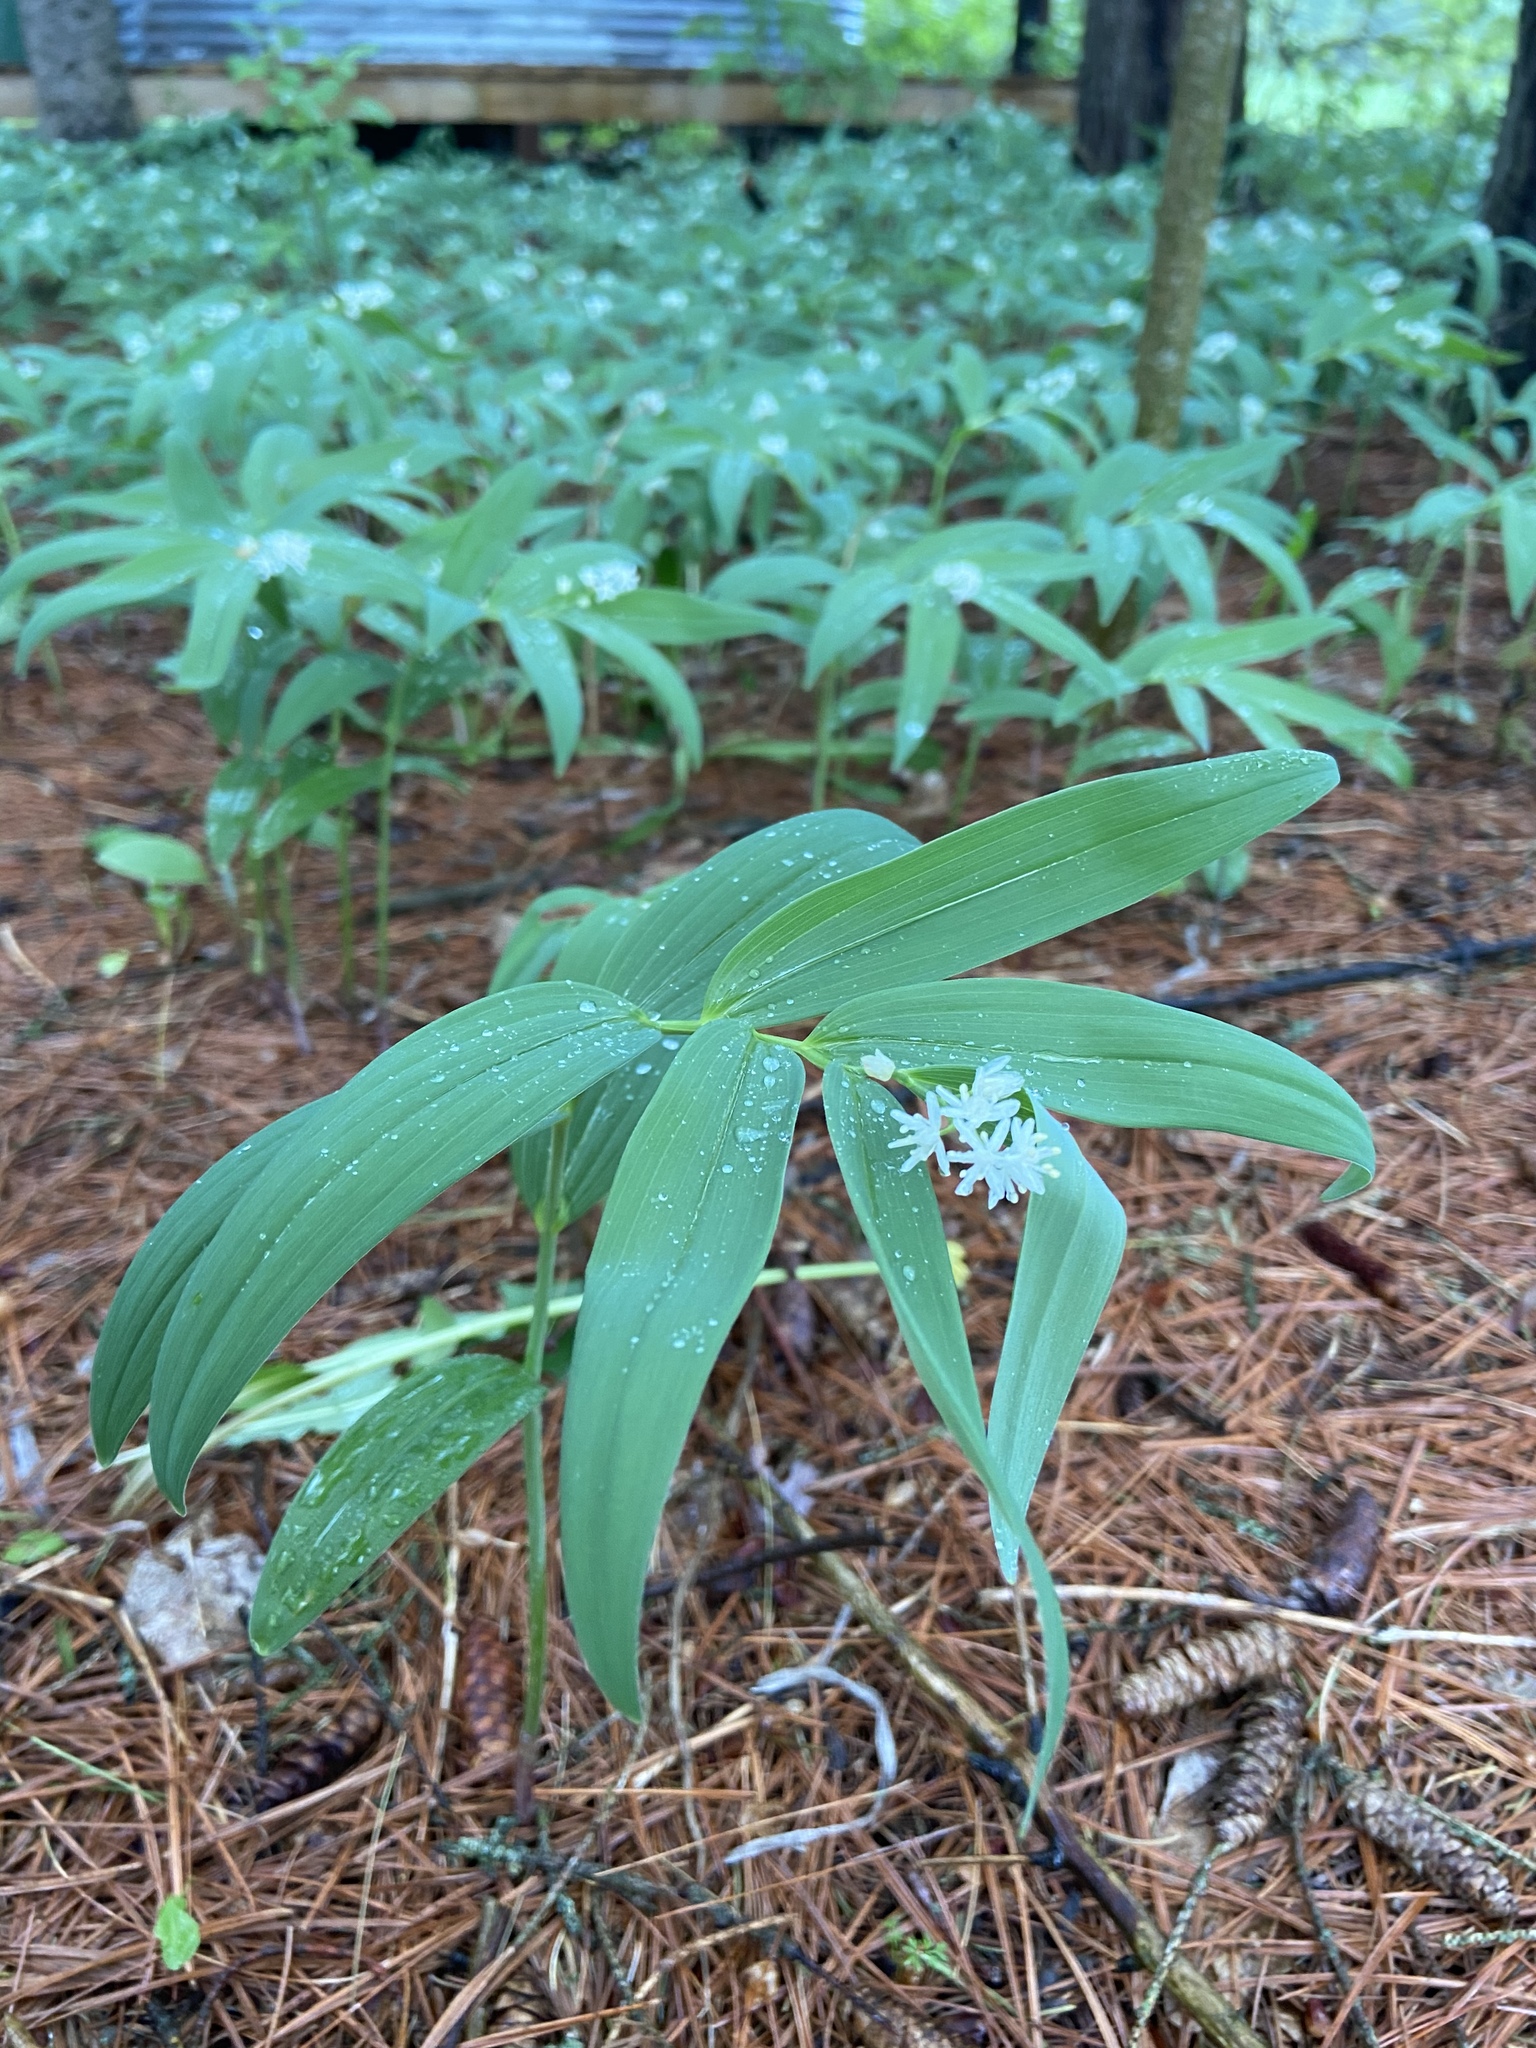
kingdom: Plantae
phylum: Tracheophyta
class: Liliopsida
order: Asparagales
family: Asparagaceae
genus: Maianthemum
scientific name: Maianthemum stellatum
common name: Little false solomon's seal
